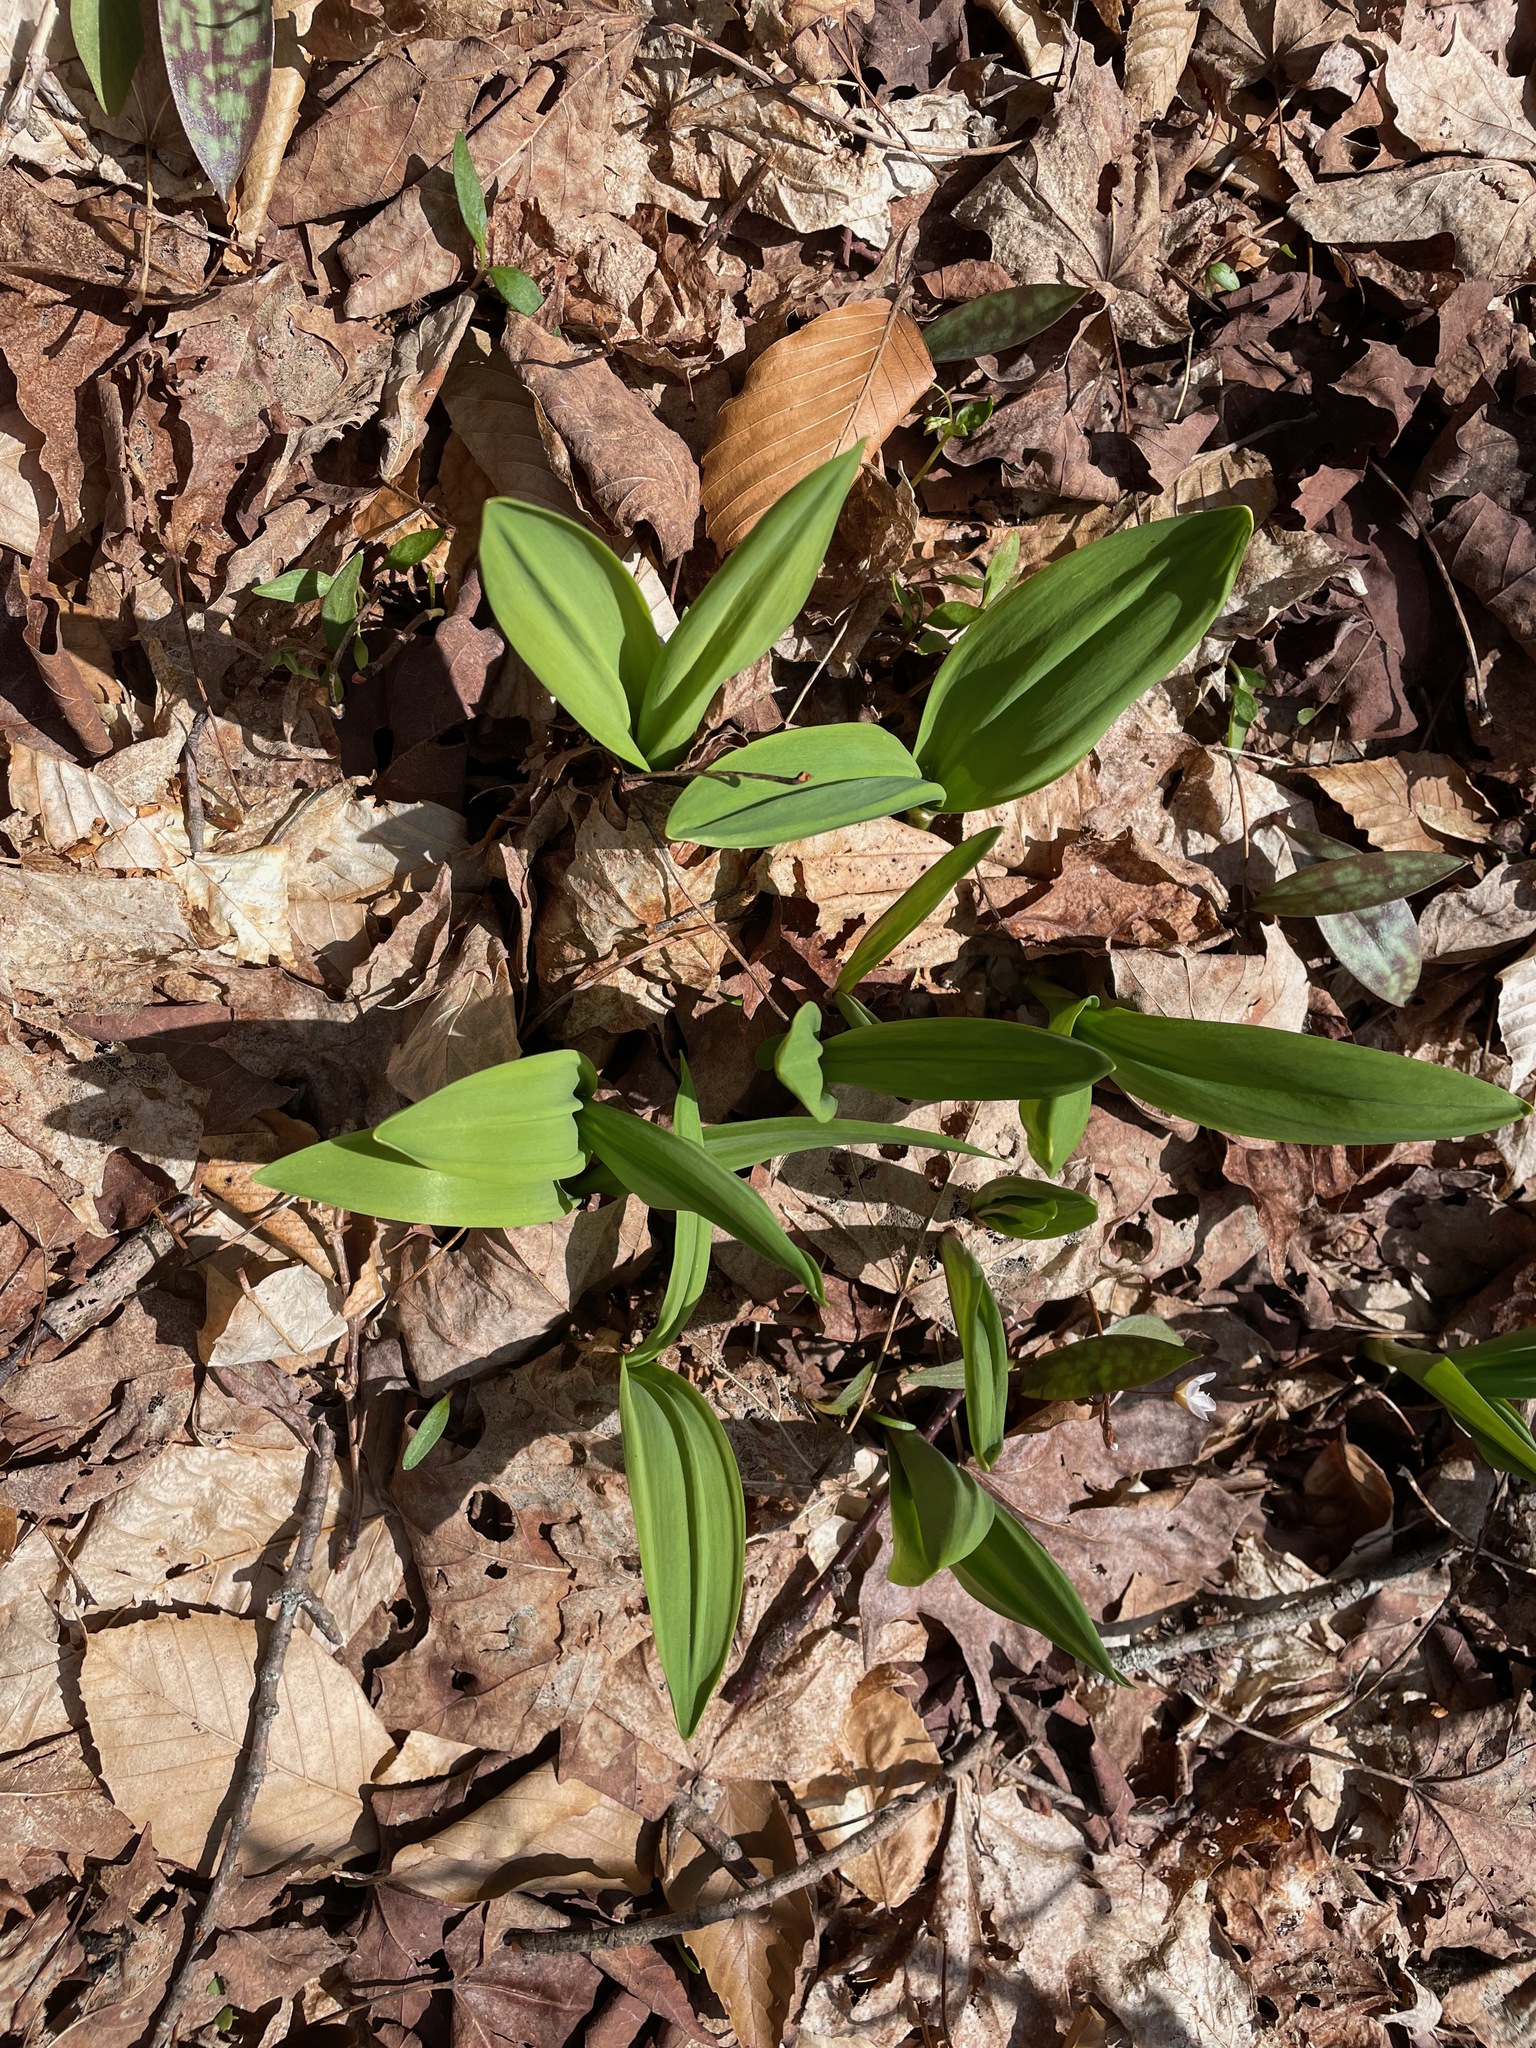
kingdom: Plantae
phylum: Tracheophyta
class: Liliopsida
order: Asparagales
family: Amaryllidaceae
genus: Allium
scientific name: Allium tricoccum
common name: Ramp
